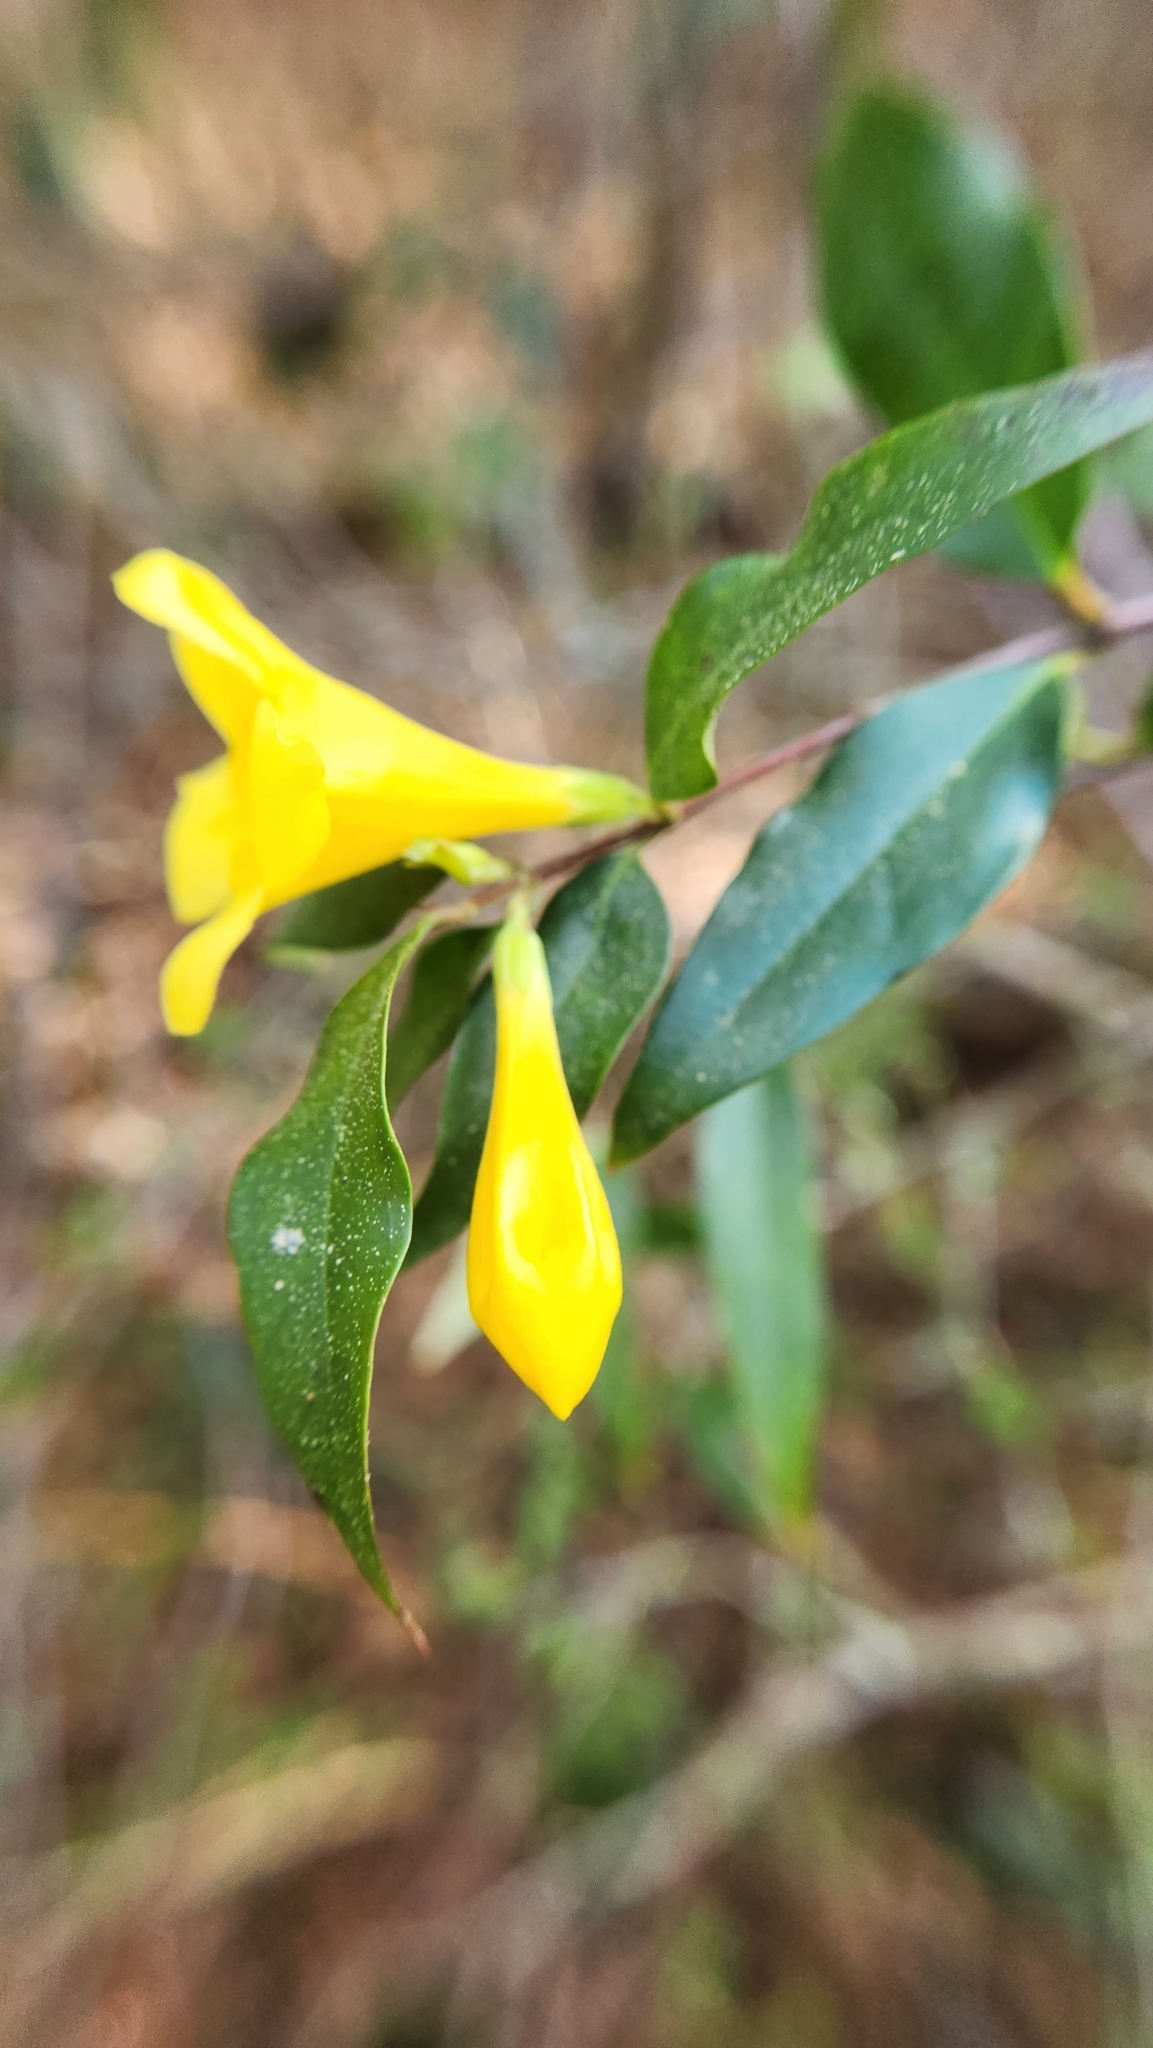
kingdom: Plantae
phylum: Tracheophyta
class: Magnoliopsida
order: Gentianales
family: Gelsemiaceae
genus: Gelsemium
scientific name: Gelsemium sempervirens
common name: Carolina-jasmine
